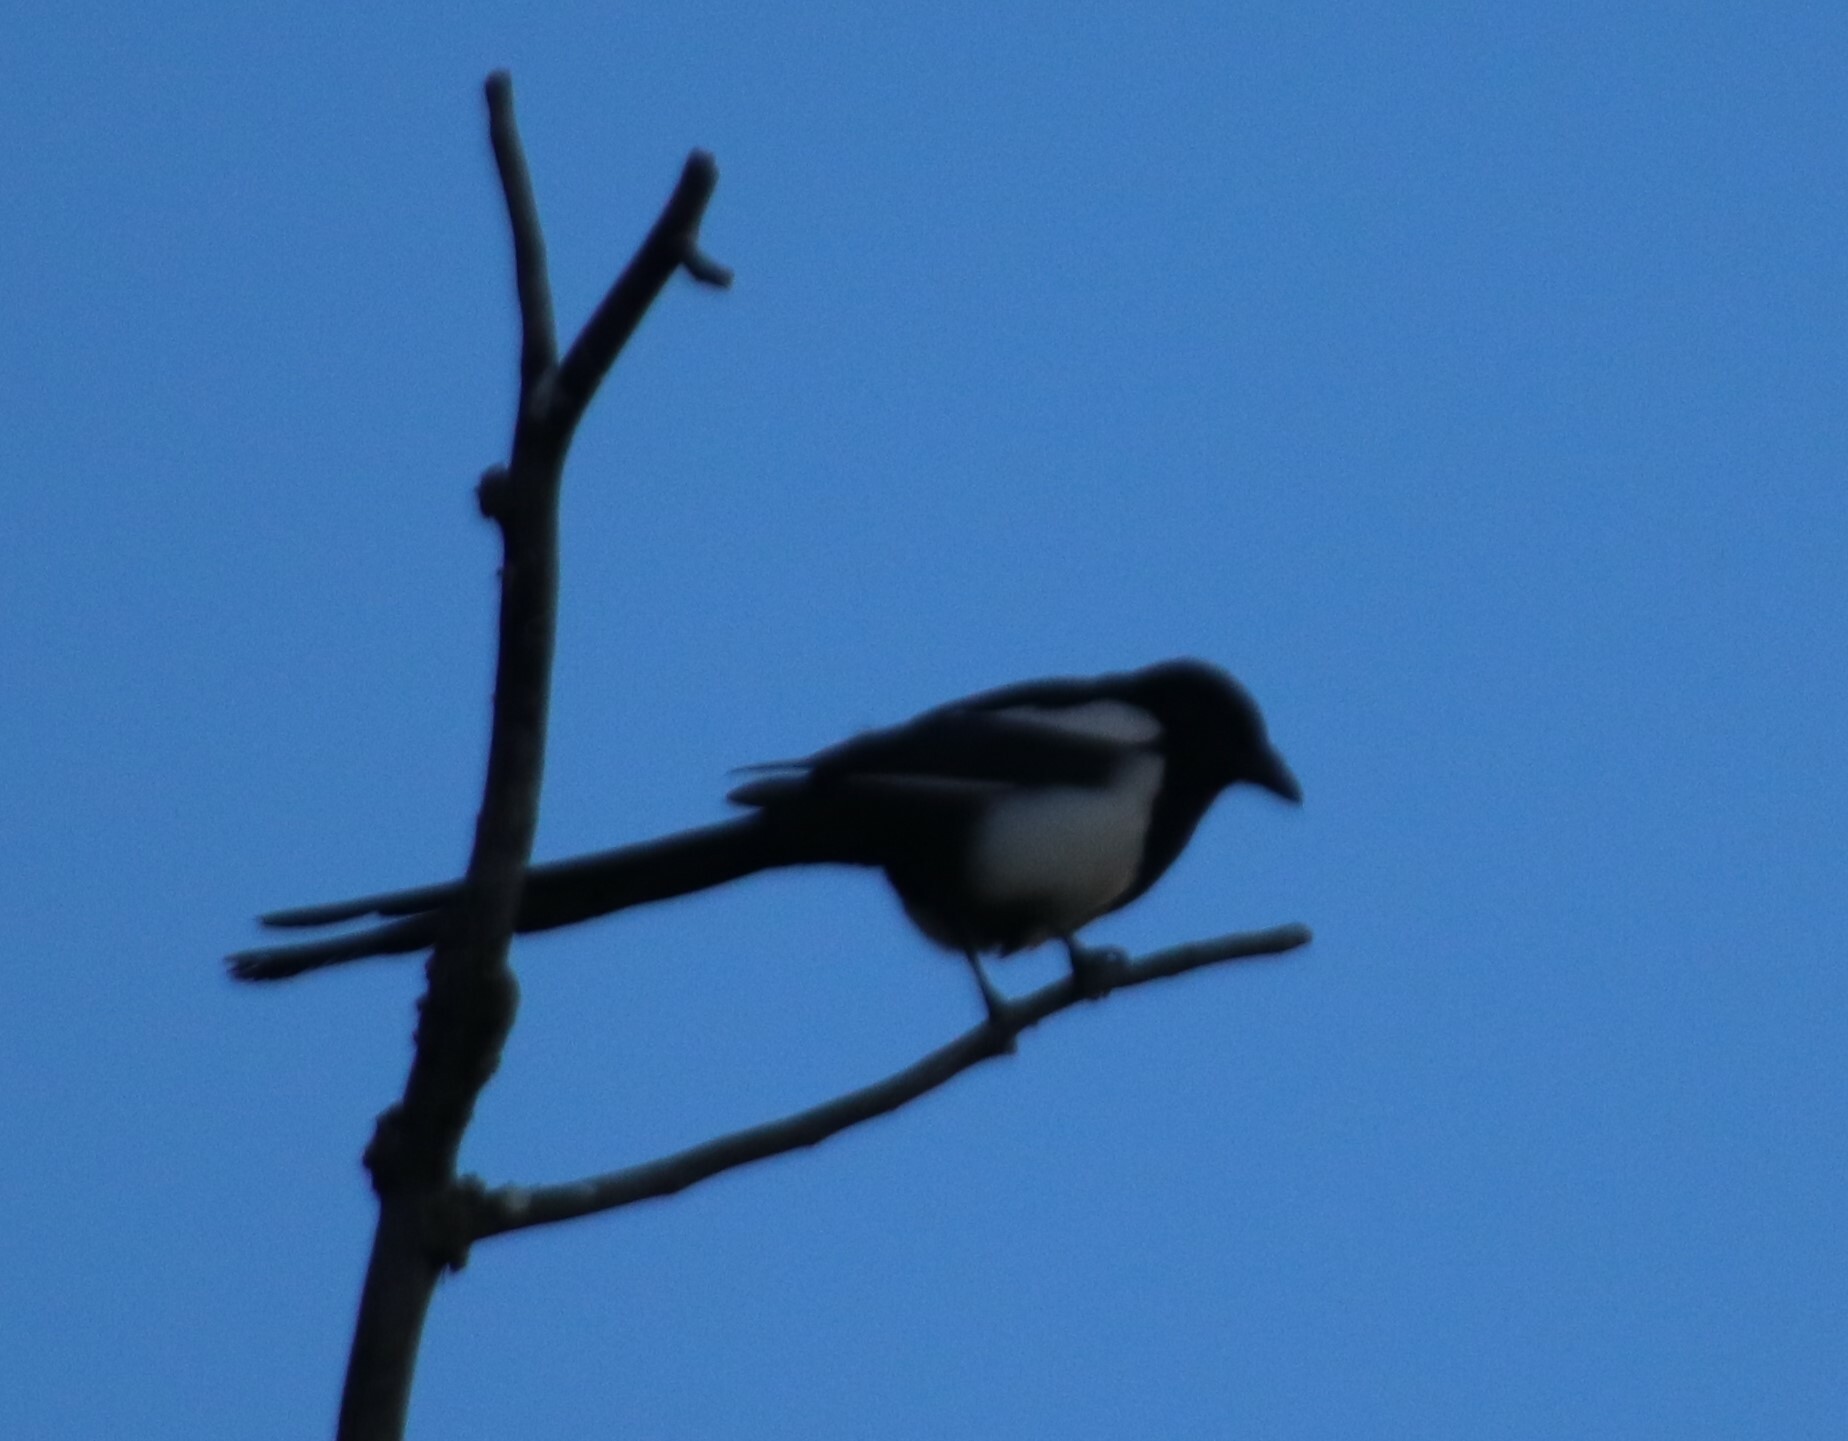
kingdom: Animalia
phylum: Chordata
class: Aves
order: Passeriformes
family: Corvidae
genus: Pica
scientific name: Pica hudsonia
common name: Black-billed magpie
